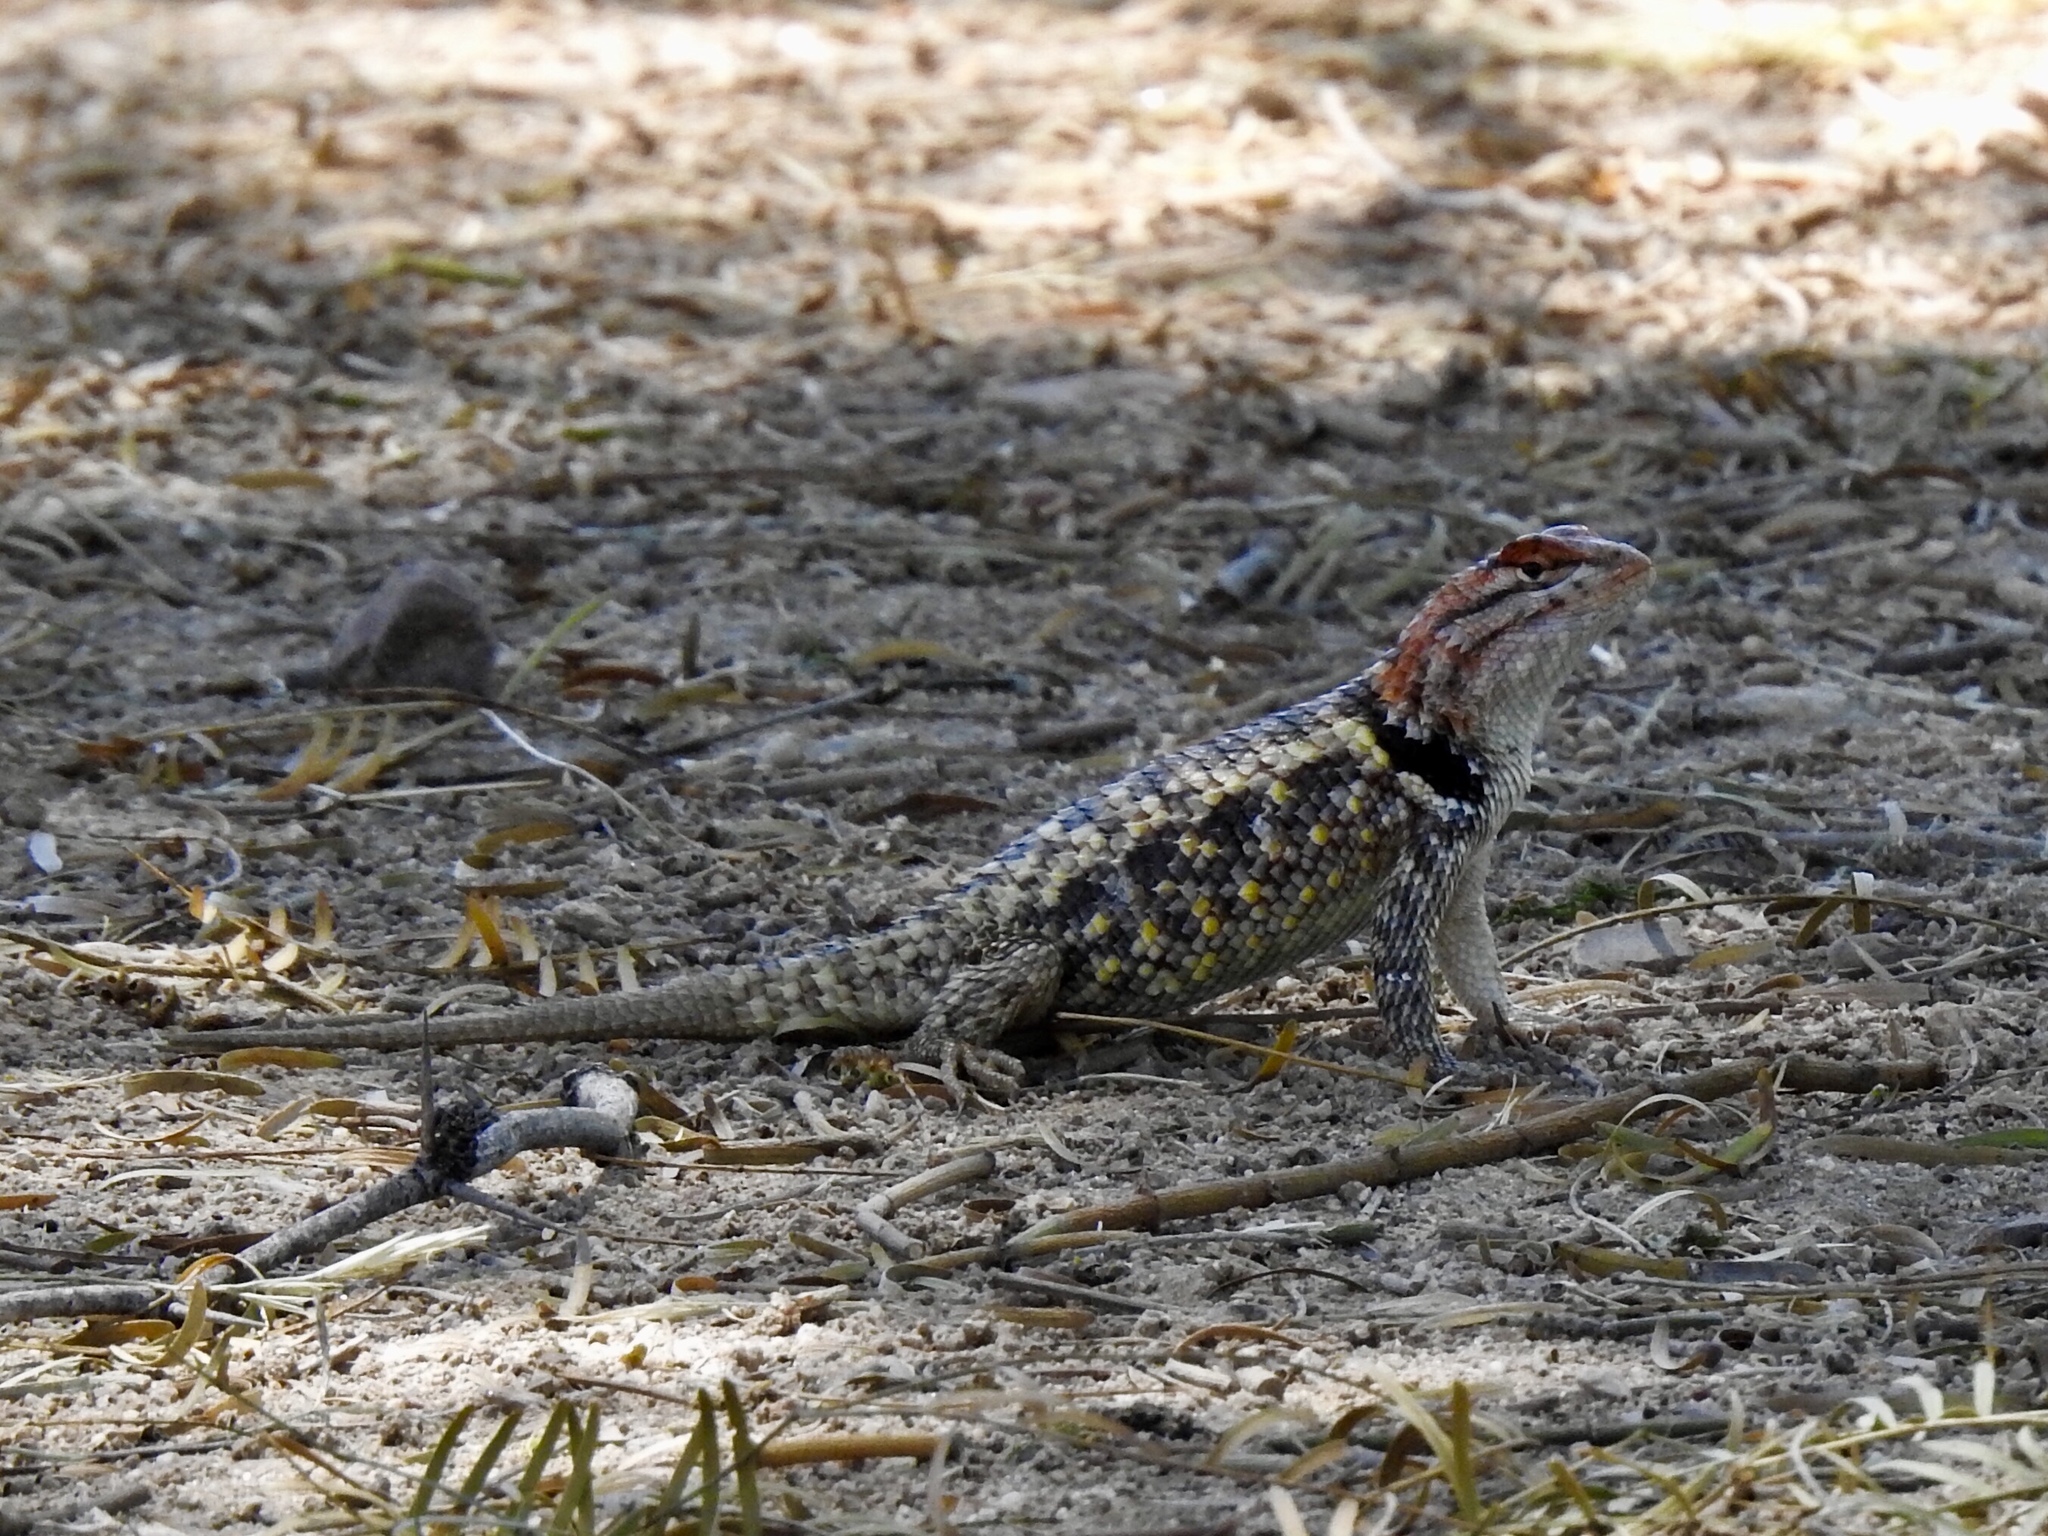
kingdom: Animalia
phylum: Chordata
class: Squamata
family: Phrynosomatidae
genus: Sceloporus
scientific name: Sceloporus magister
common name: Desert spiny lizard
